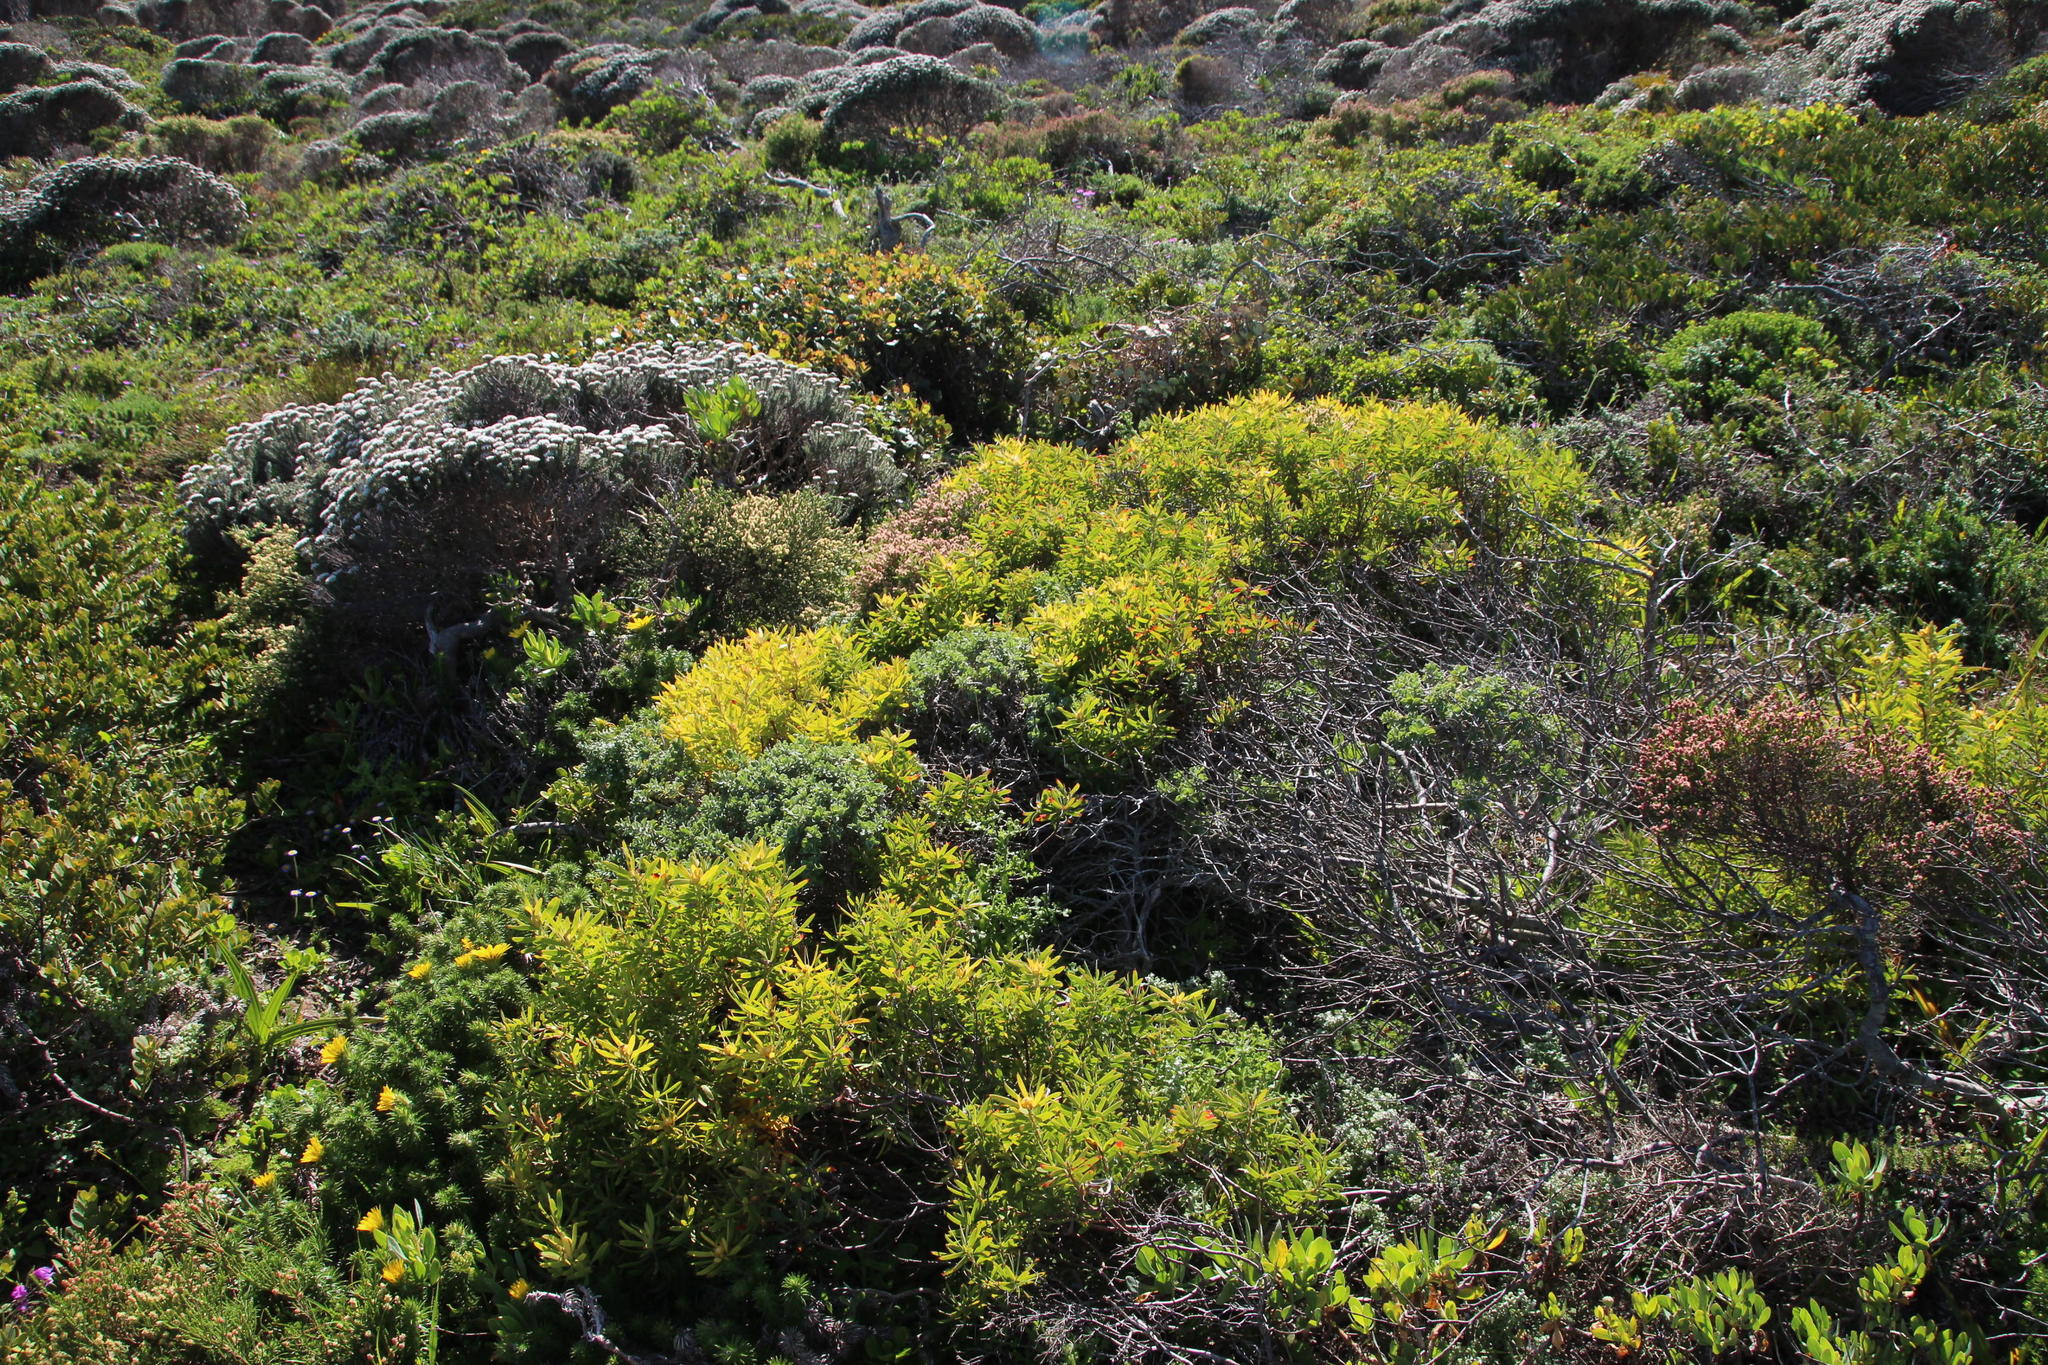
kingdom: Plantae
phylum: Tracheophyta
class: Magnoliopsida
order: Proteales
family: Proteaceae
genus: Leucadendron
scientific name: Leucadendron coniferum
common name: Dune conebush
